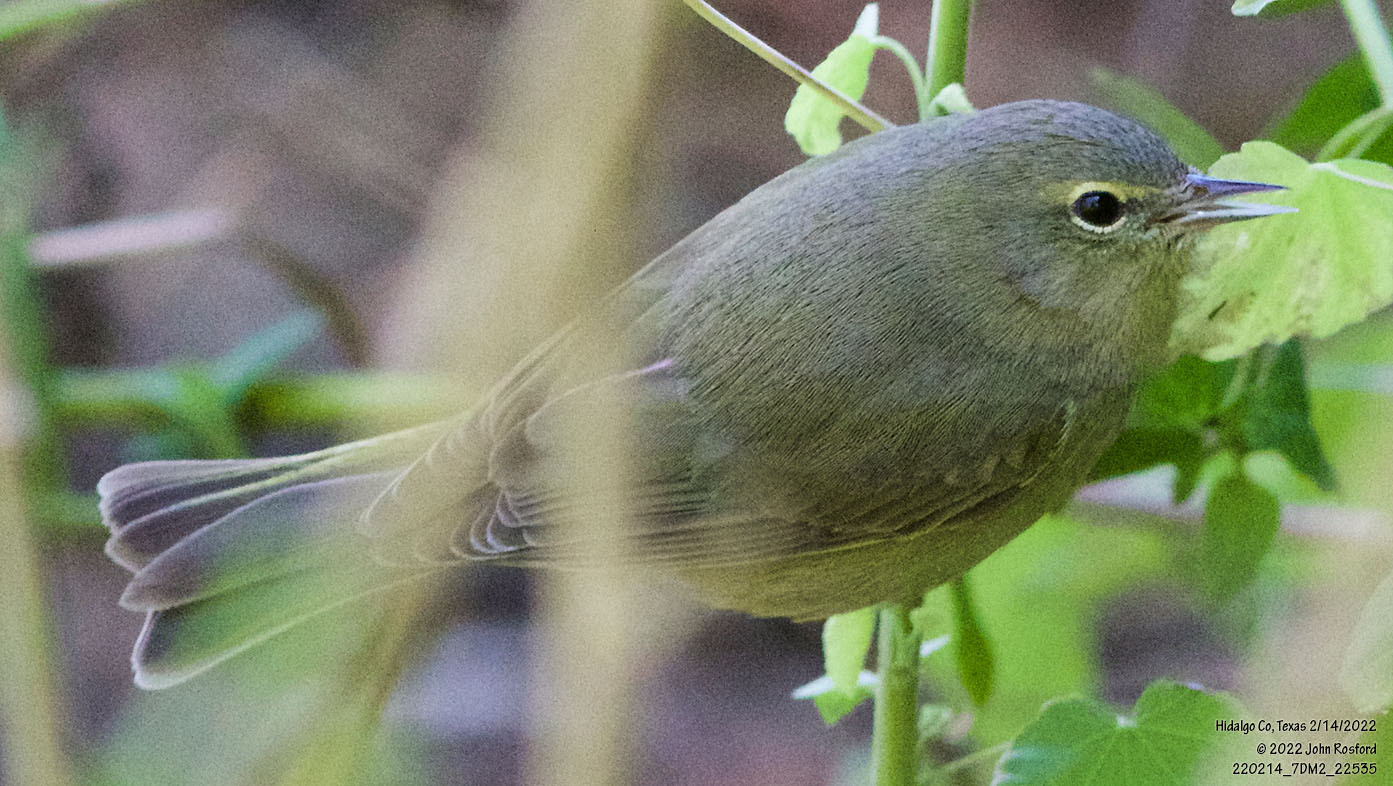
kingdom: Animalia
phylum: Chordata
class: Aves
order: Passeriformes
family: Parulidae
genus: Leiothlypis
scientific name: Leiothlypis celata
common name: Orange-crowned warbler
